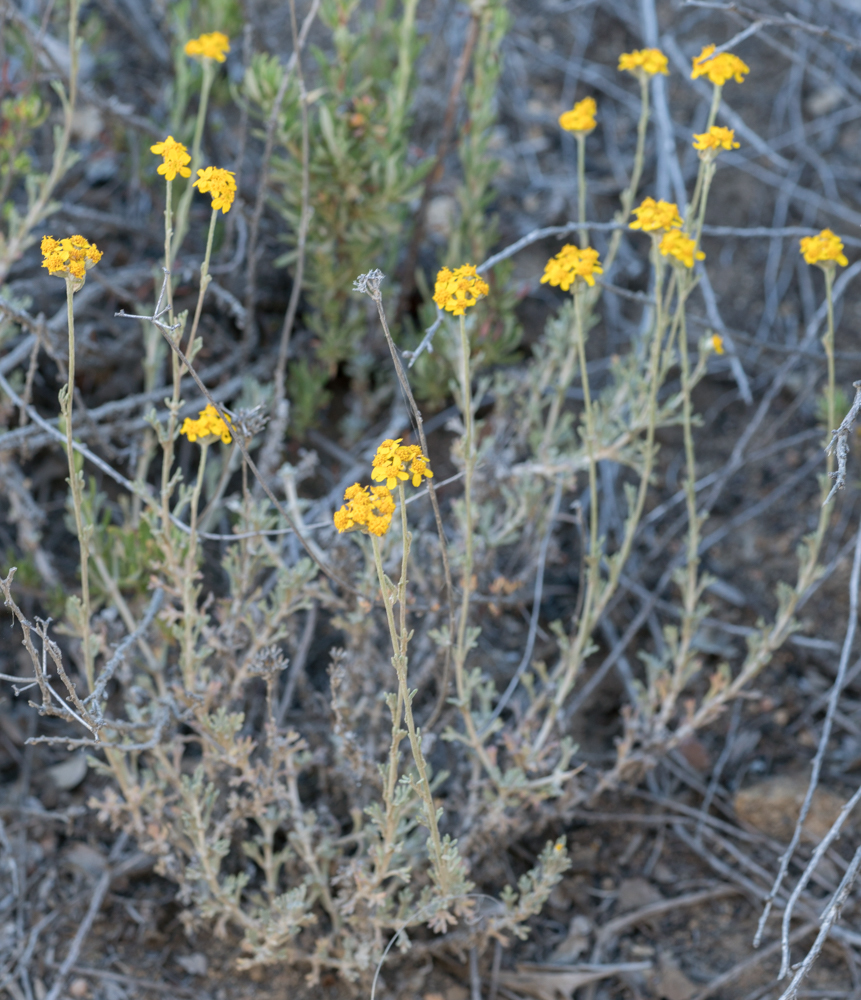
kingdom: Plantae
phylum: Tracheophyta
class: Magnoliopsida
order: Asterales
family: Asteraceae
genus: Eriophyllum
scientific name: Eriophyllum confertiflorum
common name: Golden-yarrow
